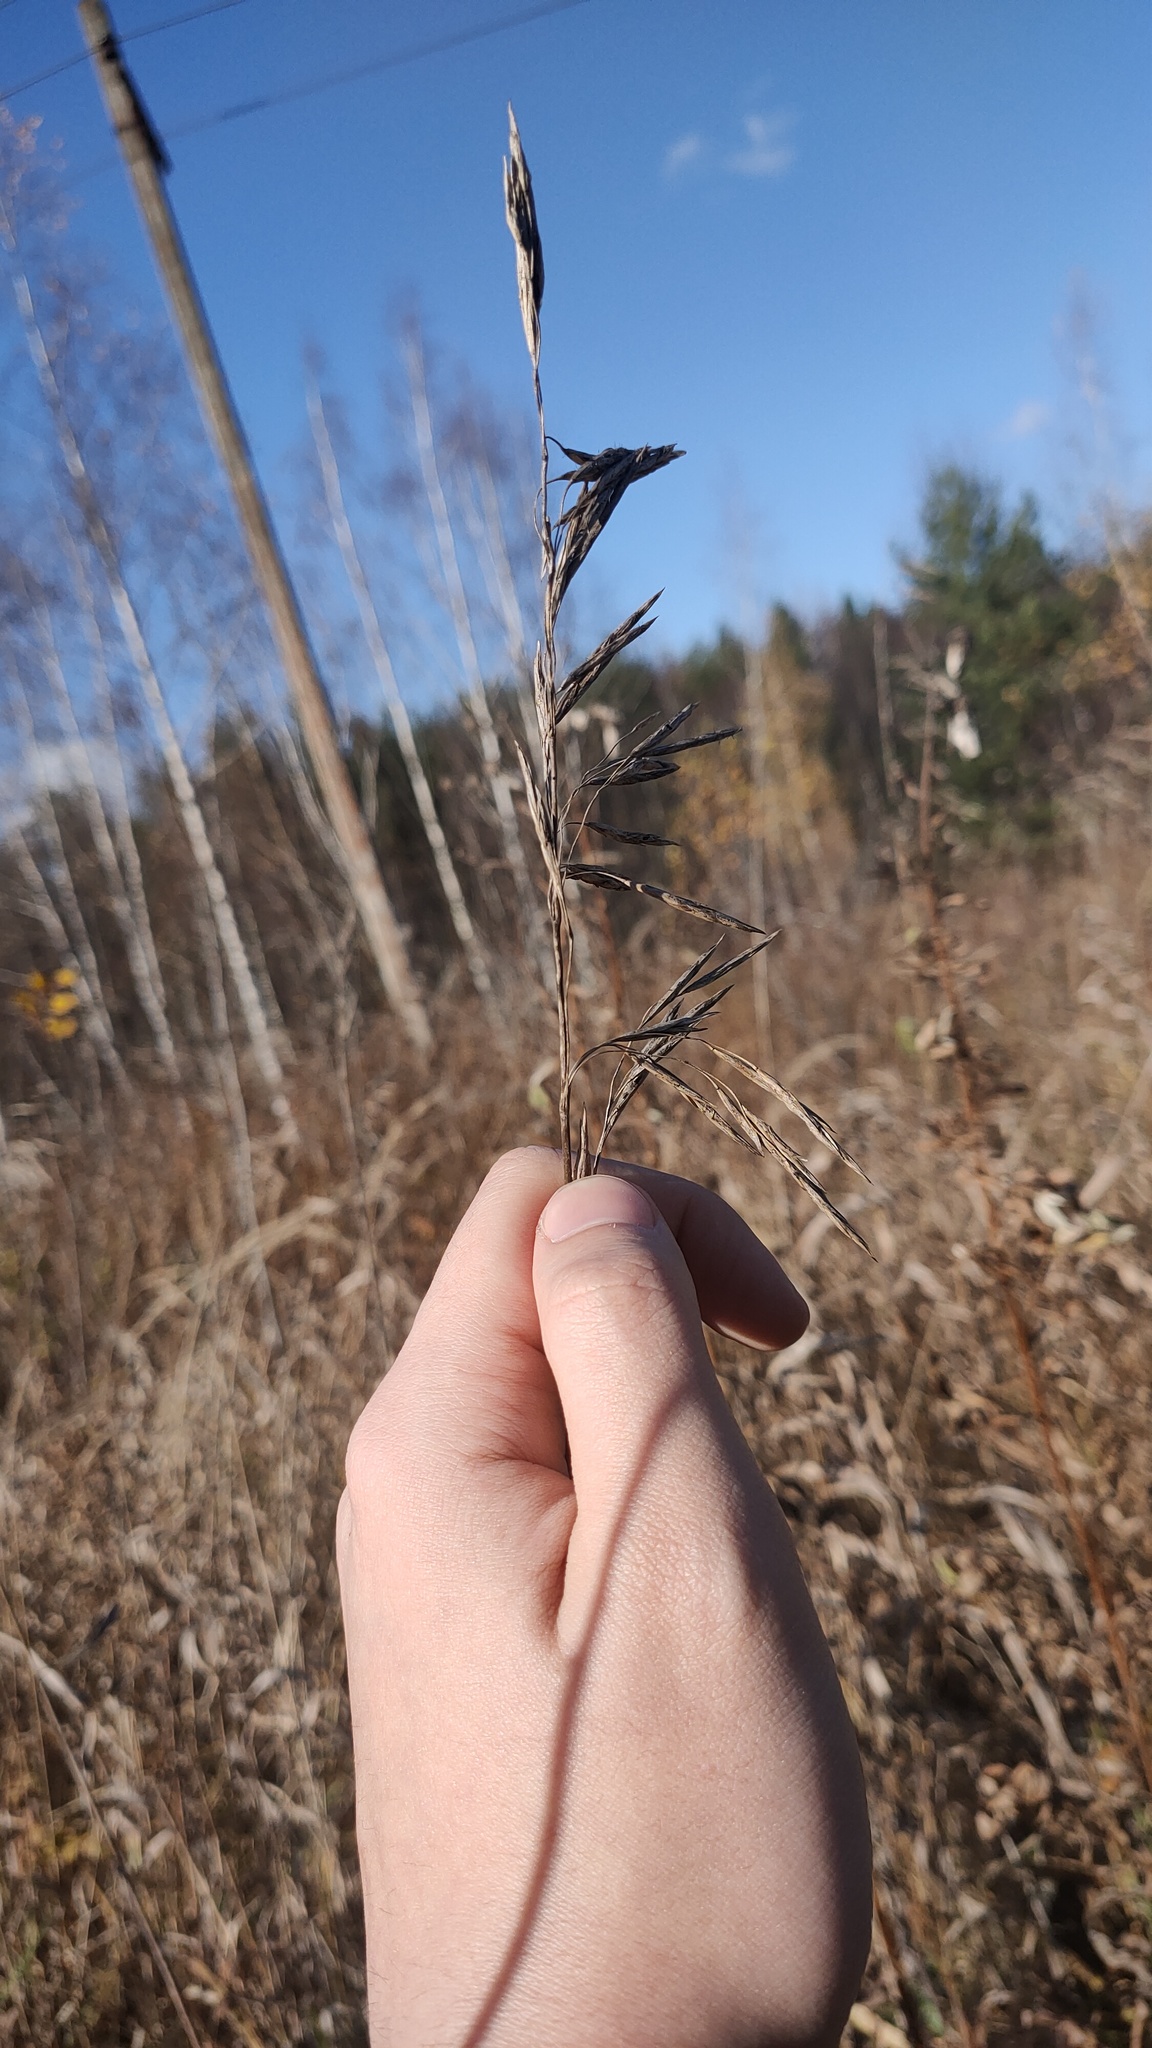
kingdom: Plantae
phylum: Tracheophyta
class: Liliopsida
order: Poales
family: Poaceae
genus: Bromus
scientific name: Bromus inermis
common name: Smooth brome
